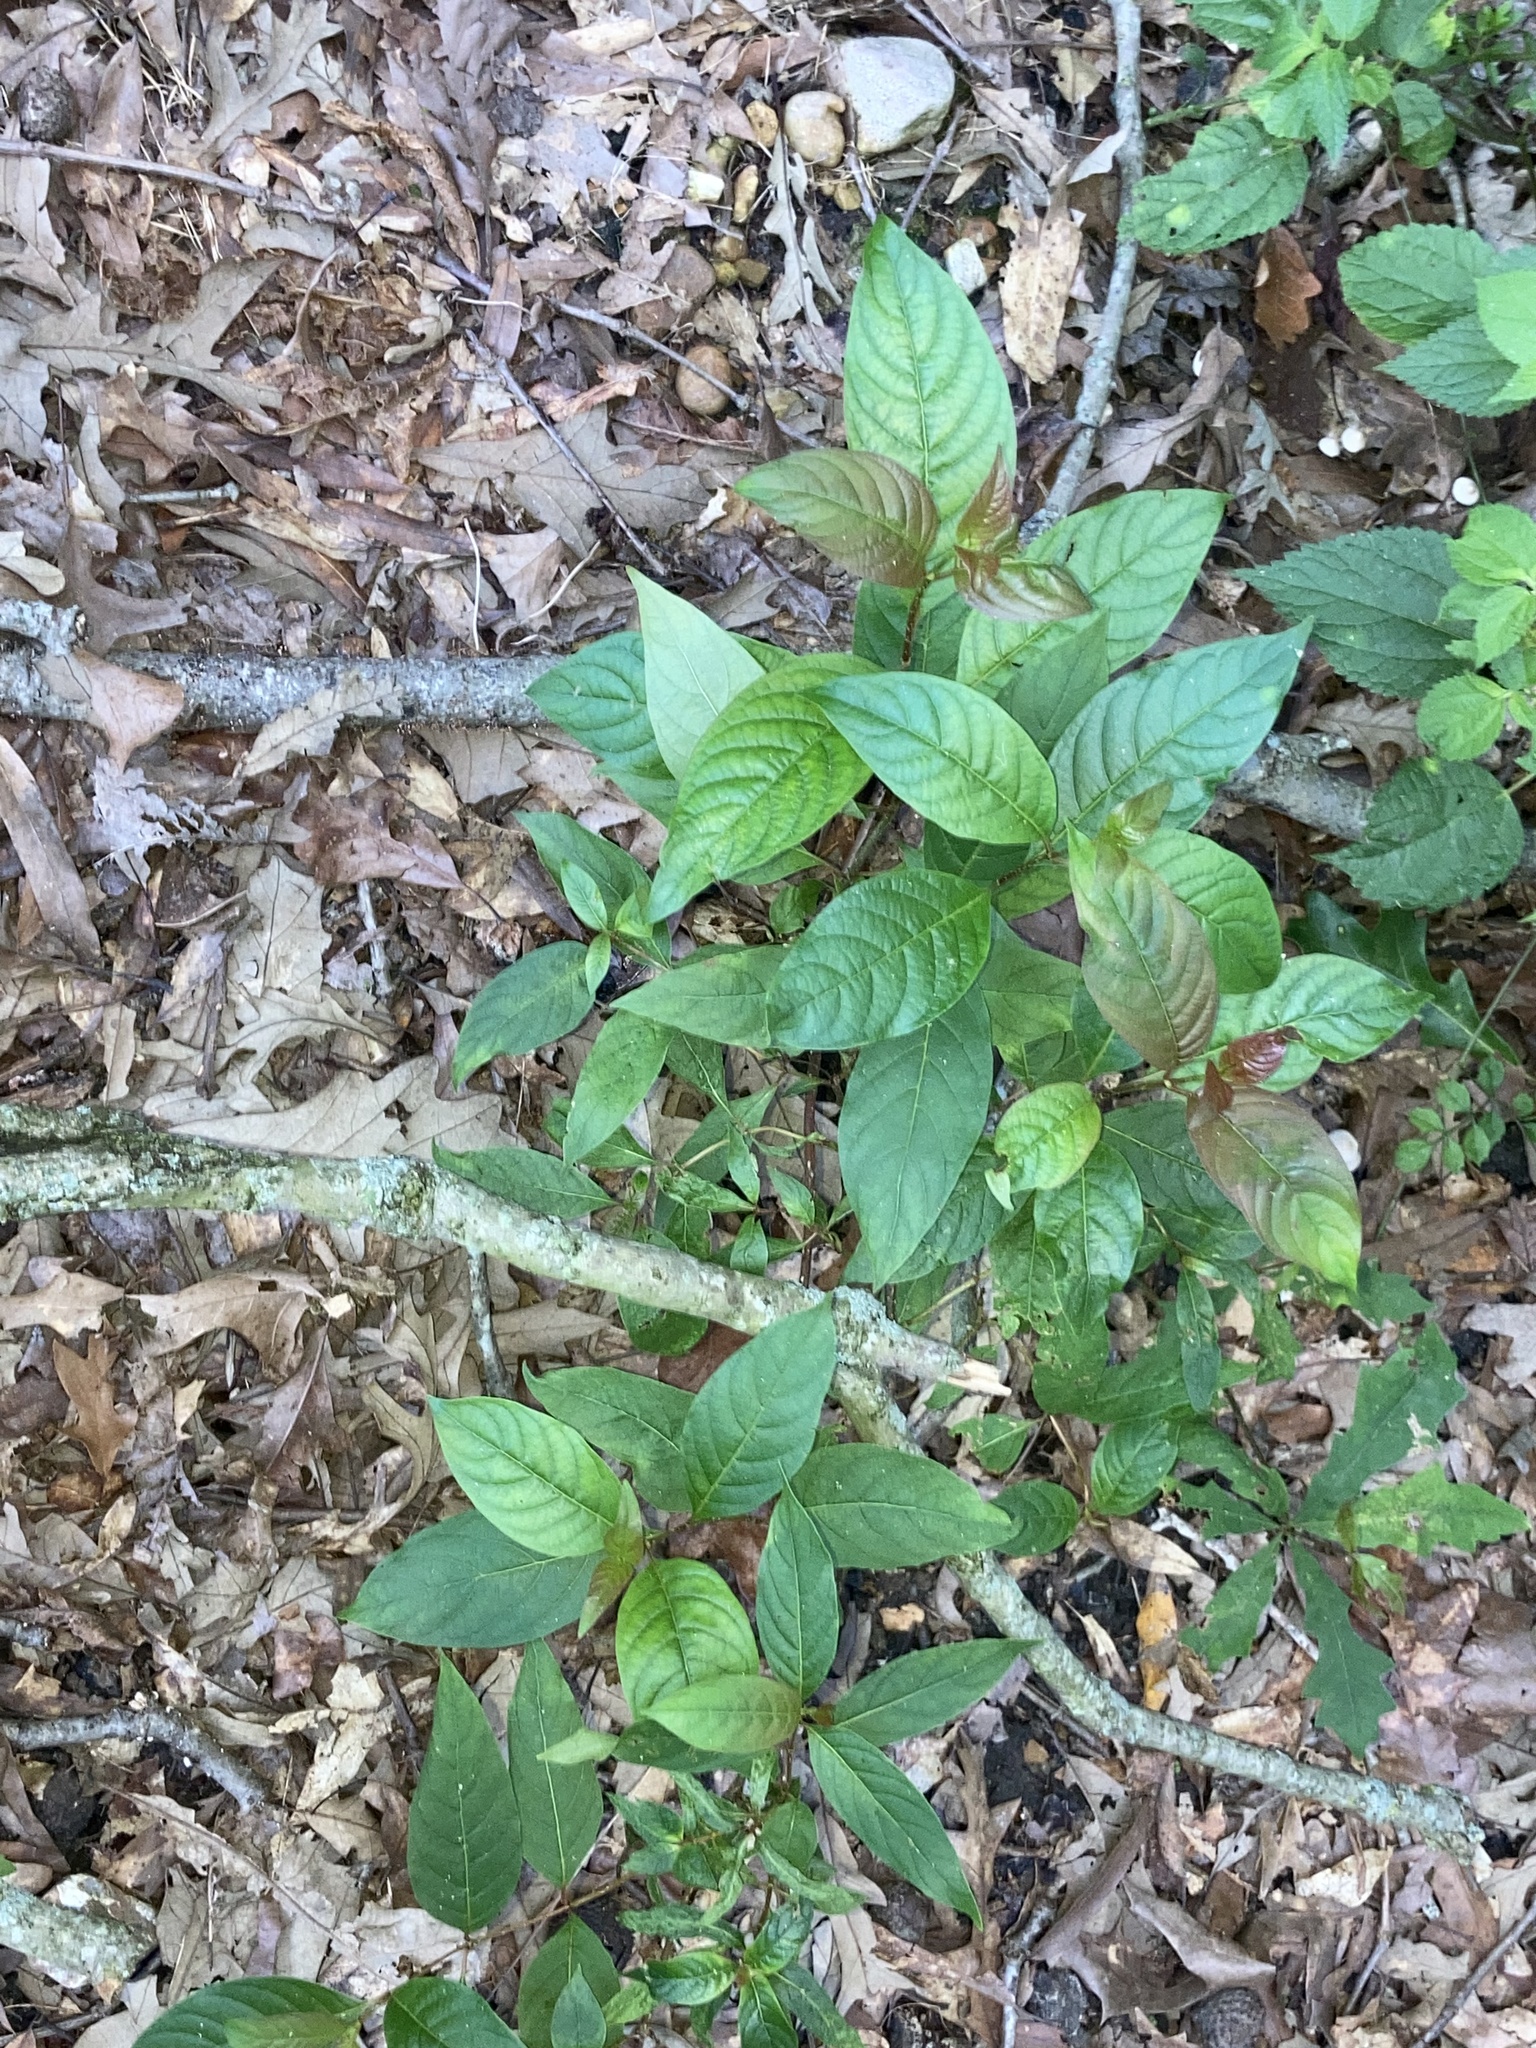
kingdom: Plantae
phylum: Tracheophyta
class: Magnoliopsida
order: Gentianales
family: Rubiaceae
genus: Cephalanthus
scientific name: Cephalanthus occidentalis
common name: Button-willow
